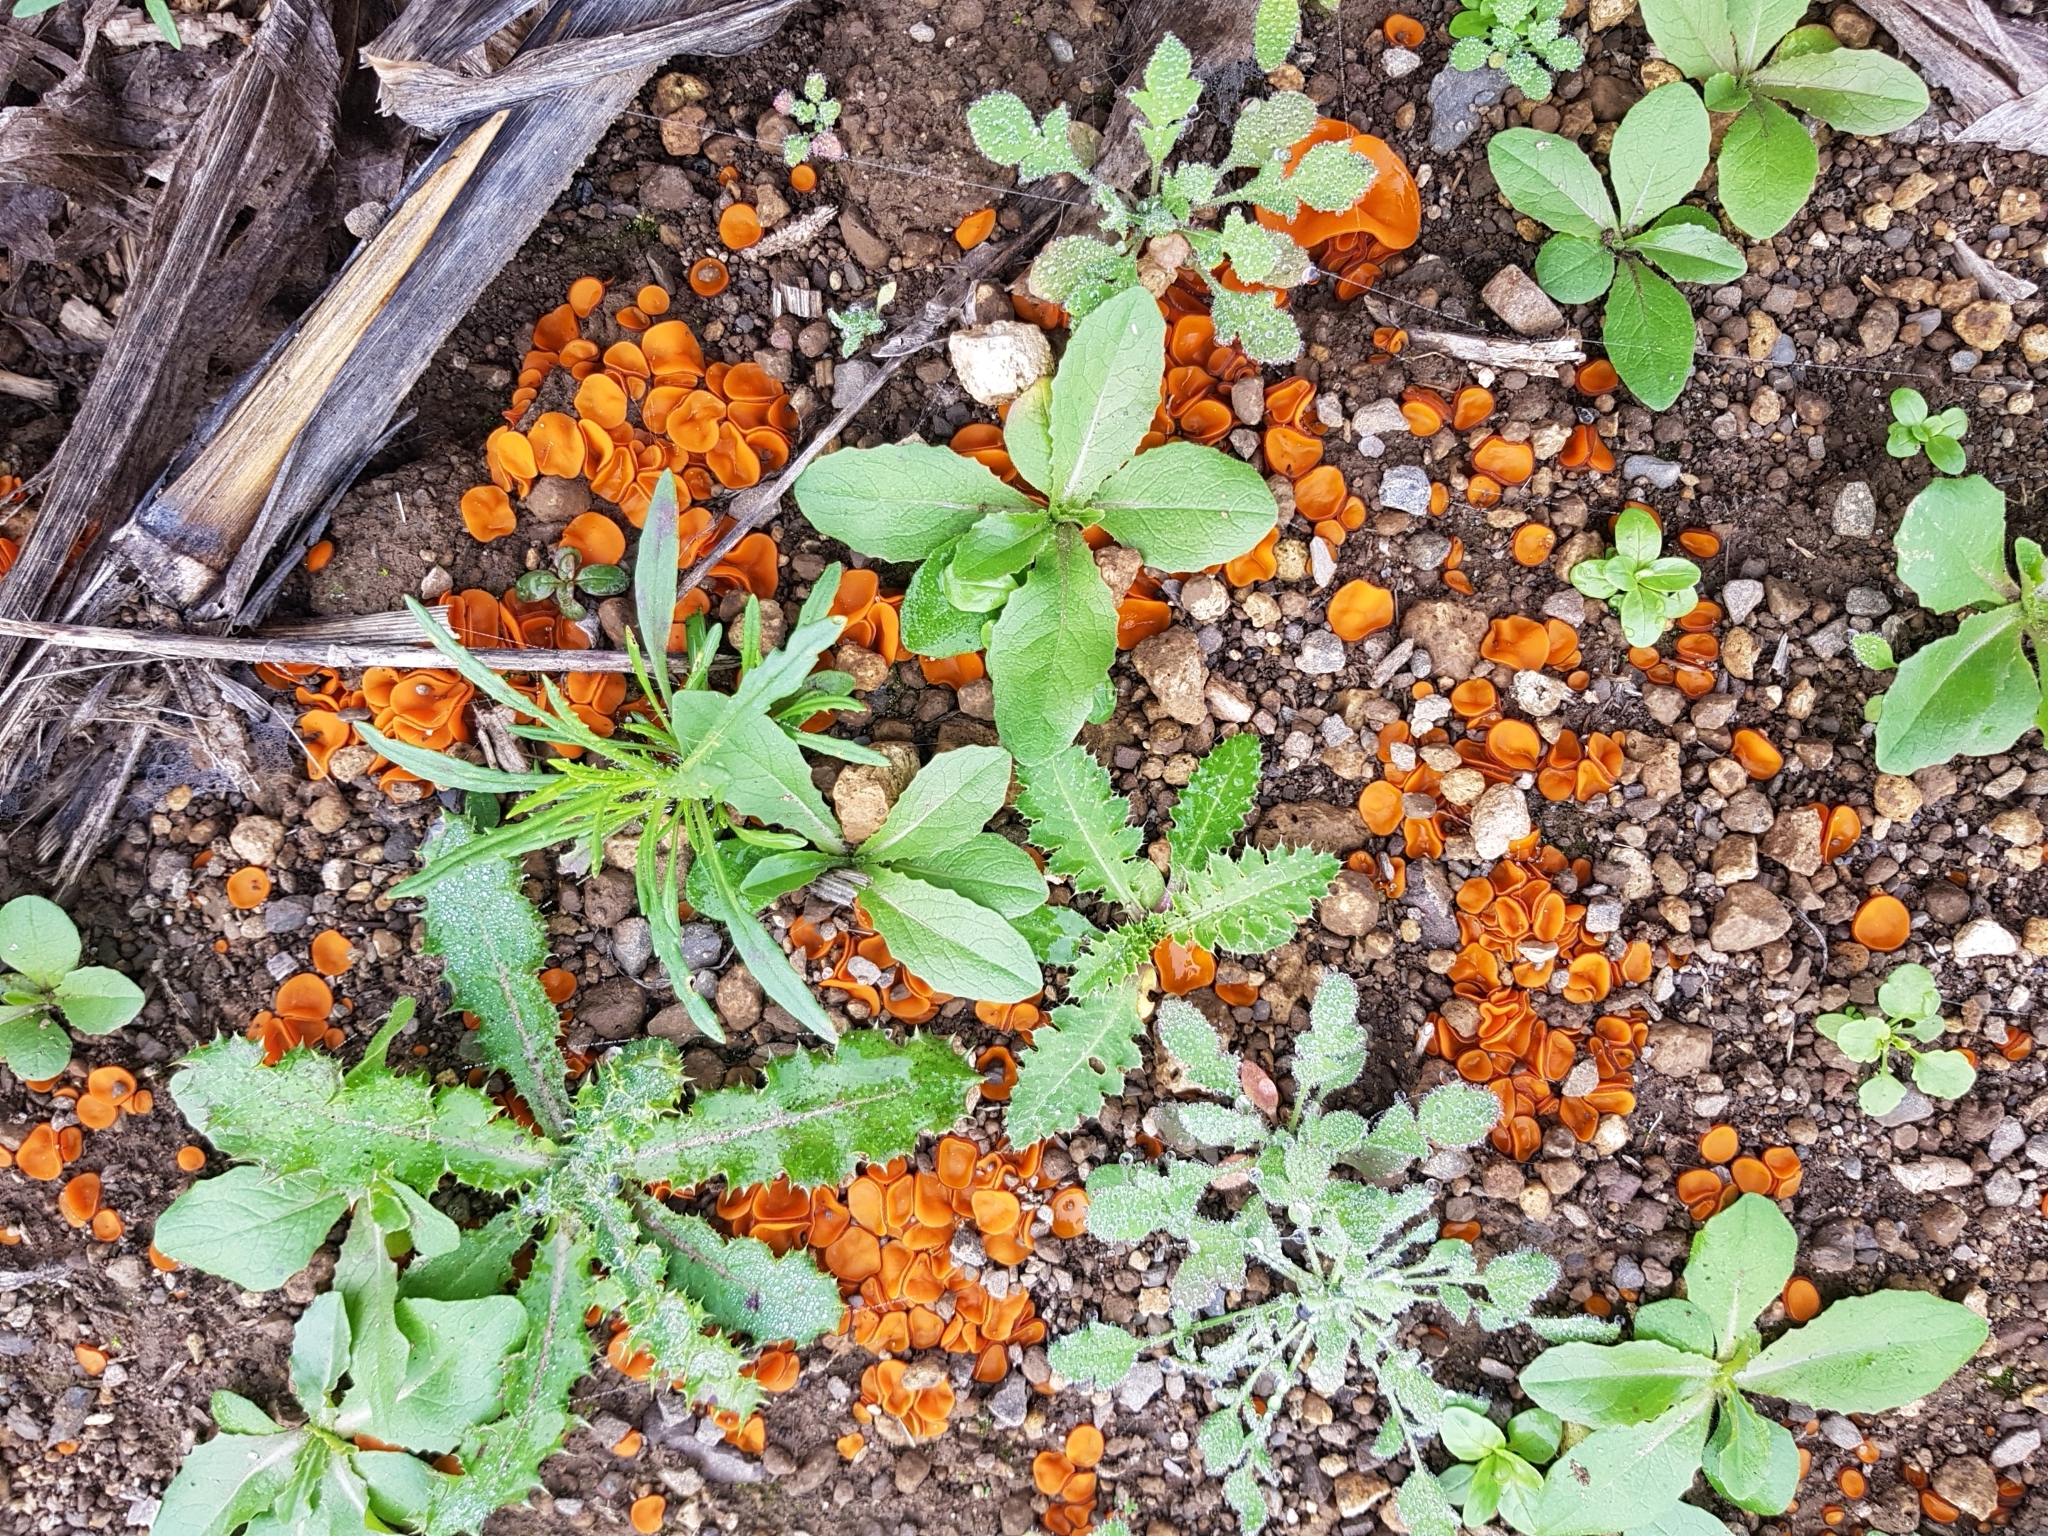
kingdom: Fungi
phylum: Ascomycota
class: Pezizomycetes
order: Pezizales
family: Pyronemataceae
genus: Melastiza
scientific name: Melastiza chateri
